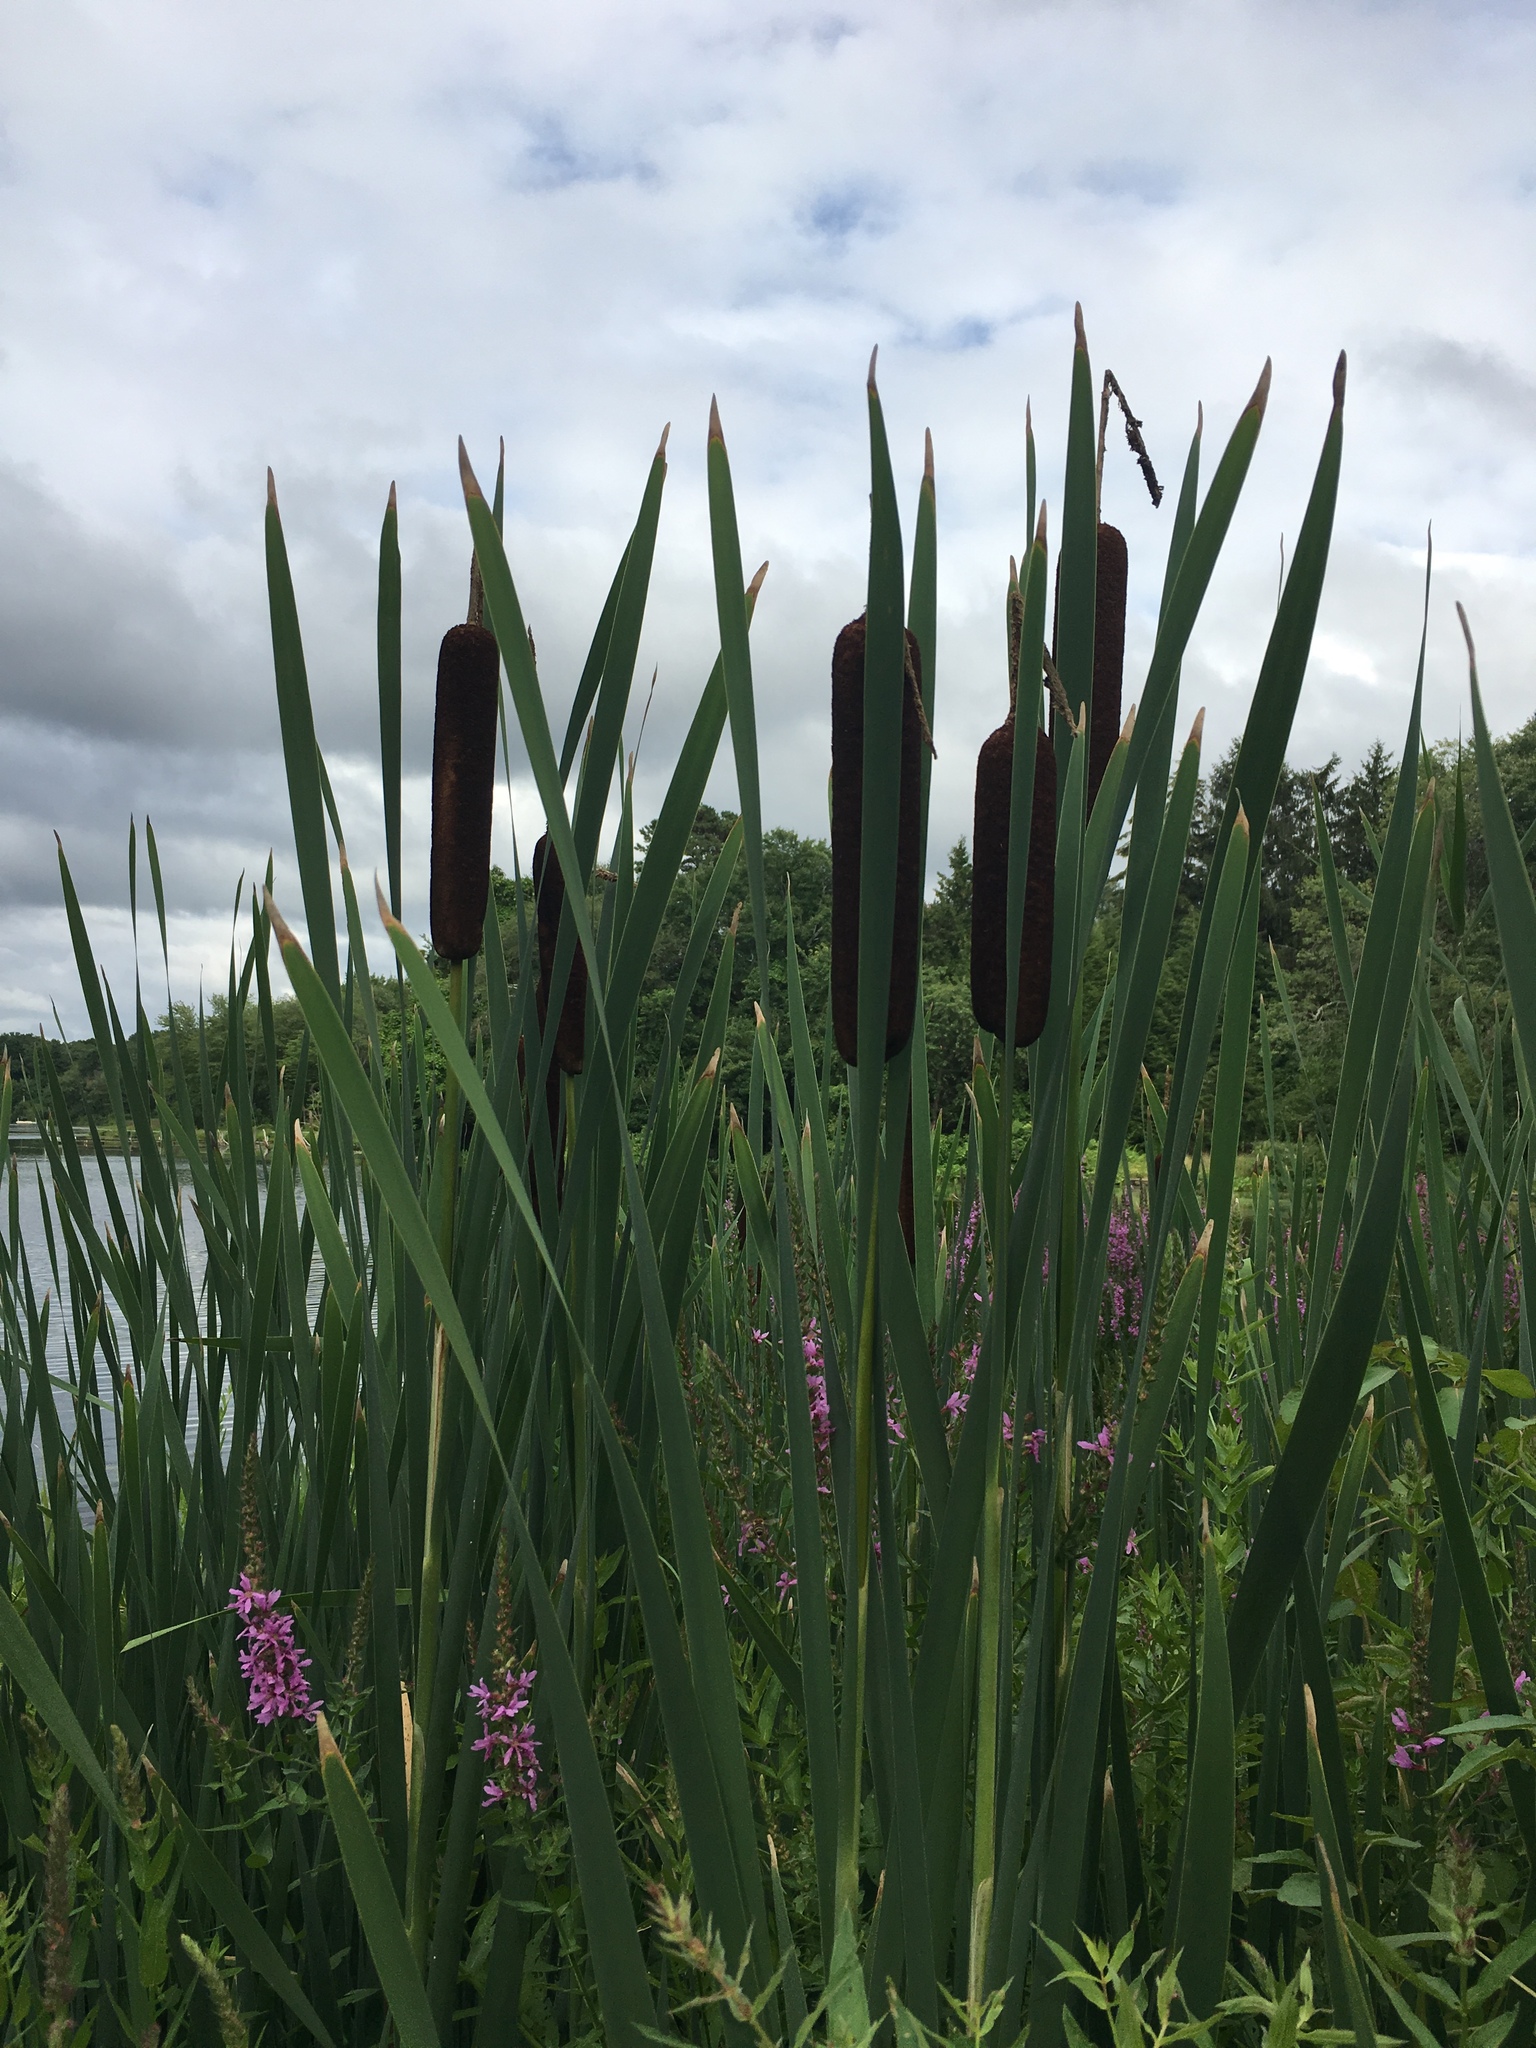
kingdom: Plantae
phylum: Tracheophyta
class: Liliopsida
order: Poales
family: Typhaceae
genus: Typha
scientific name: Typha latifolia
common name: Broadleaf cattail
